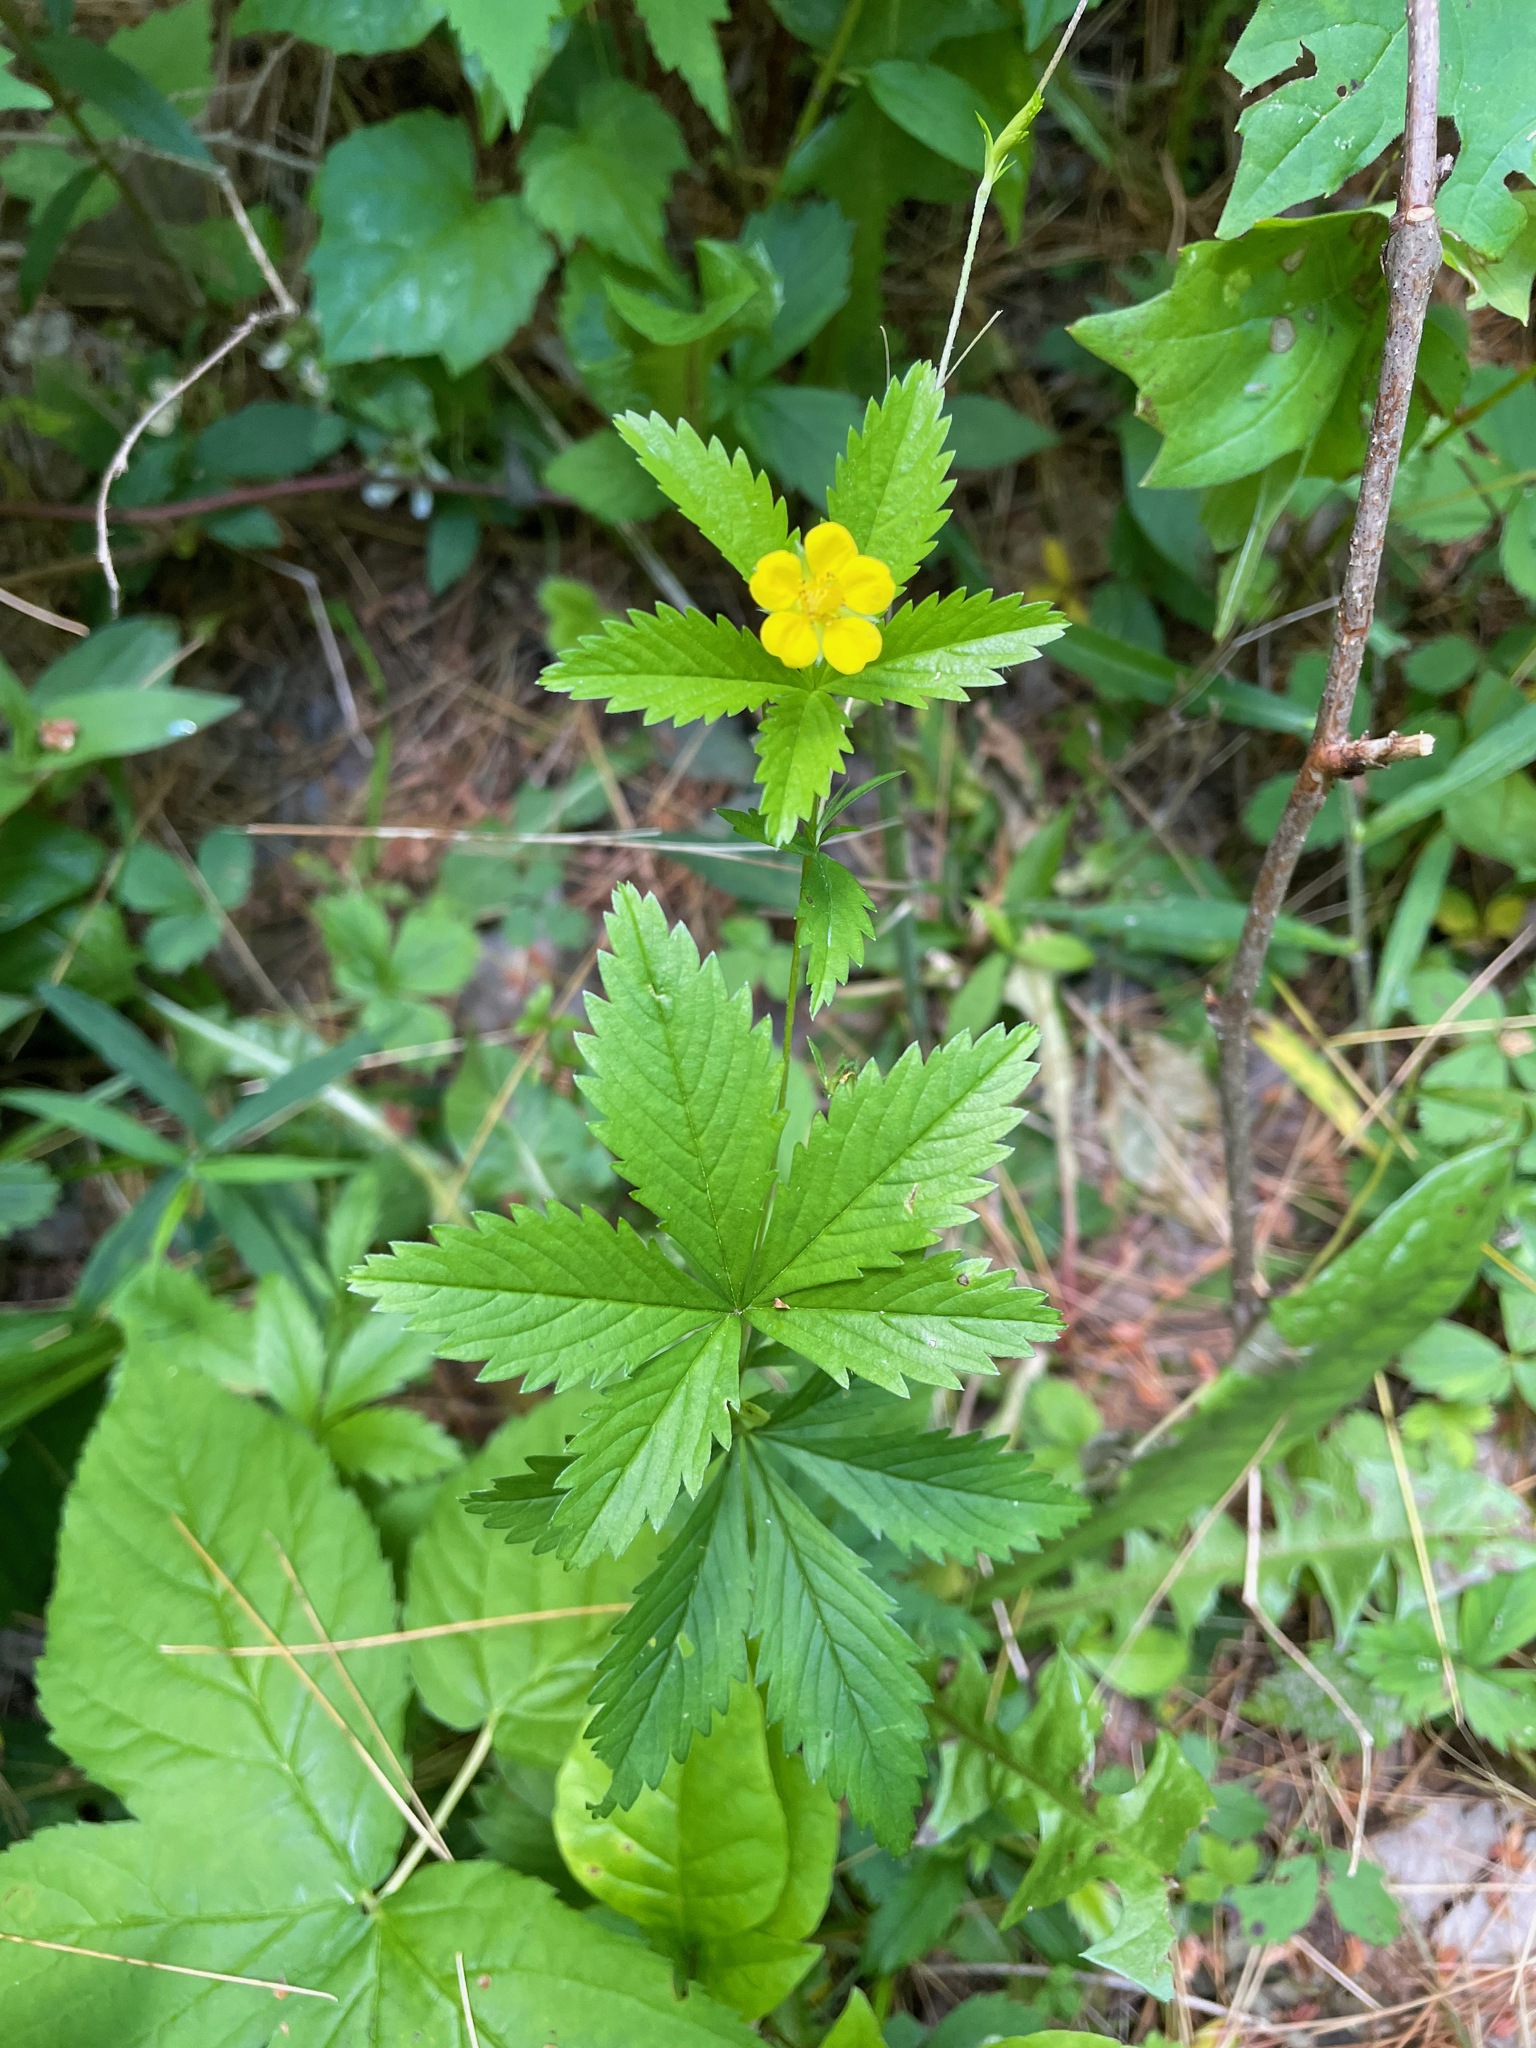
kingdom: Plantae
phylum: Tracheophyta
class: Magnoliopsida
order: Rosales
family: Rosaceae
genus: Potentilla
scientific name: Potentilla simplex
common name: Old field cinquefoil
